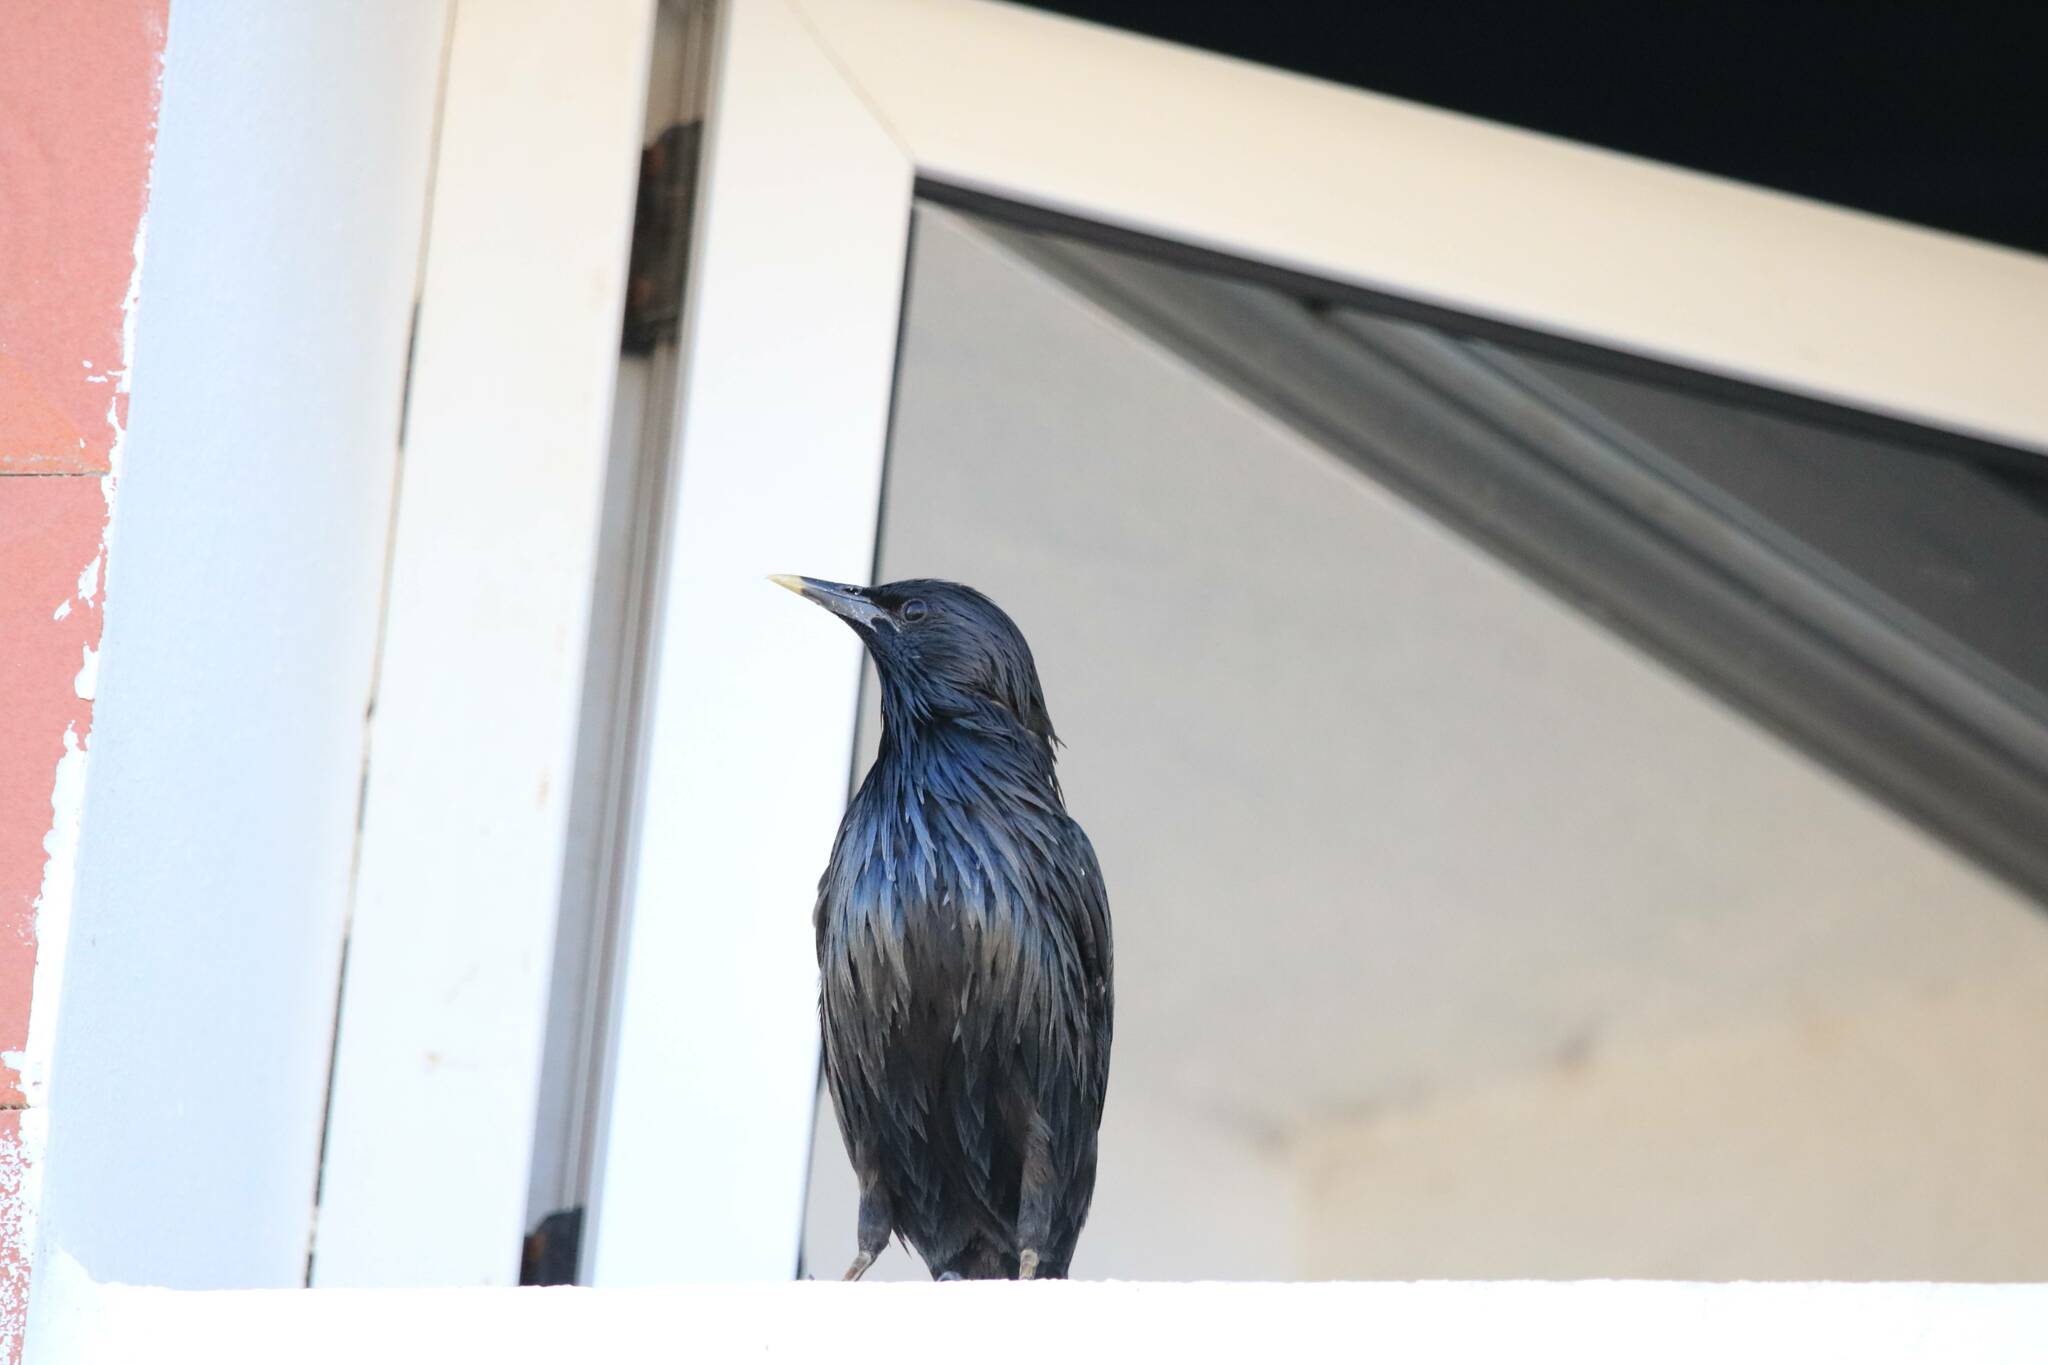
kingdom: Animalia
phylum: Chordata
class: Aves
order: Passeriformes
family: Sturnidae
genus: Sturnus
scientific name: Sturnus unicolor
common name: Spotless starling
